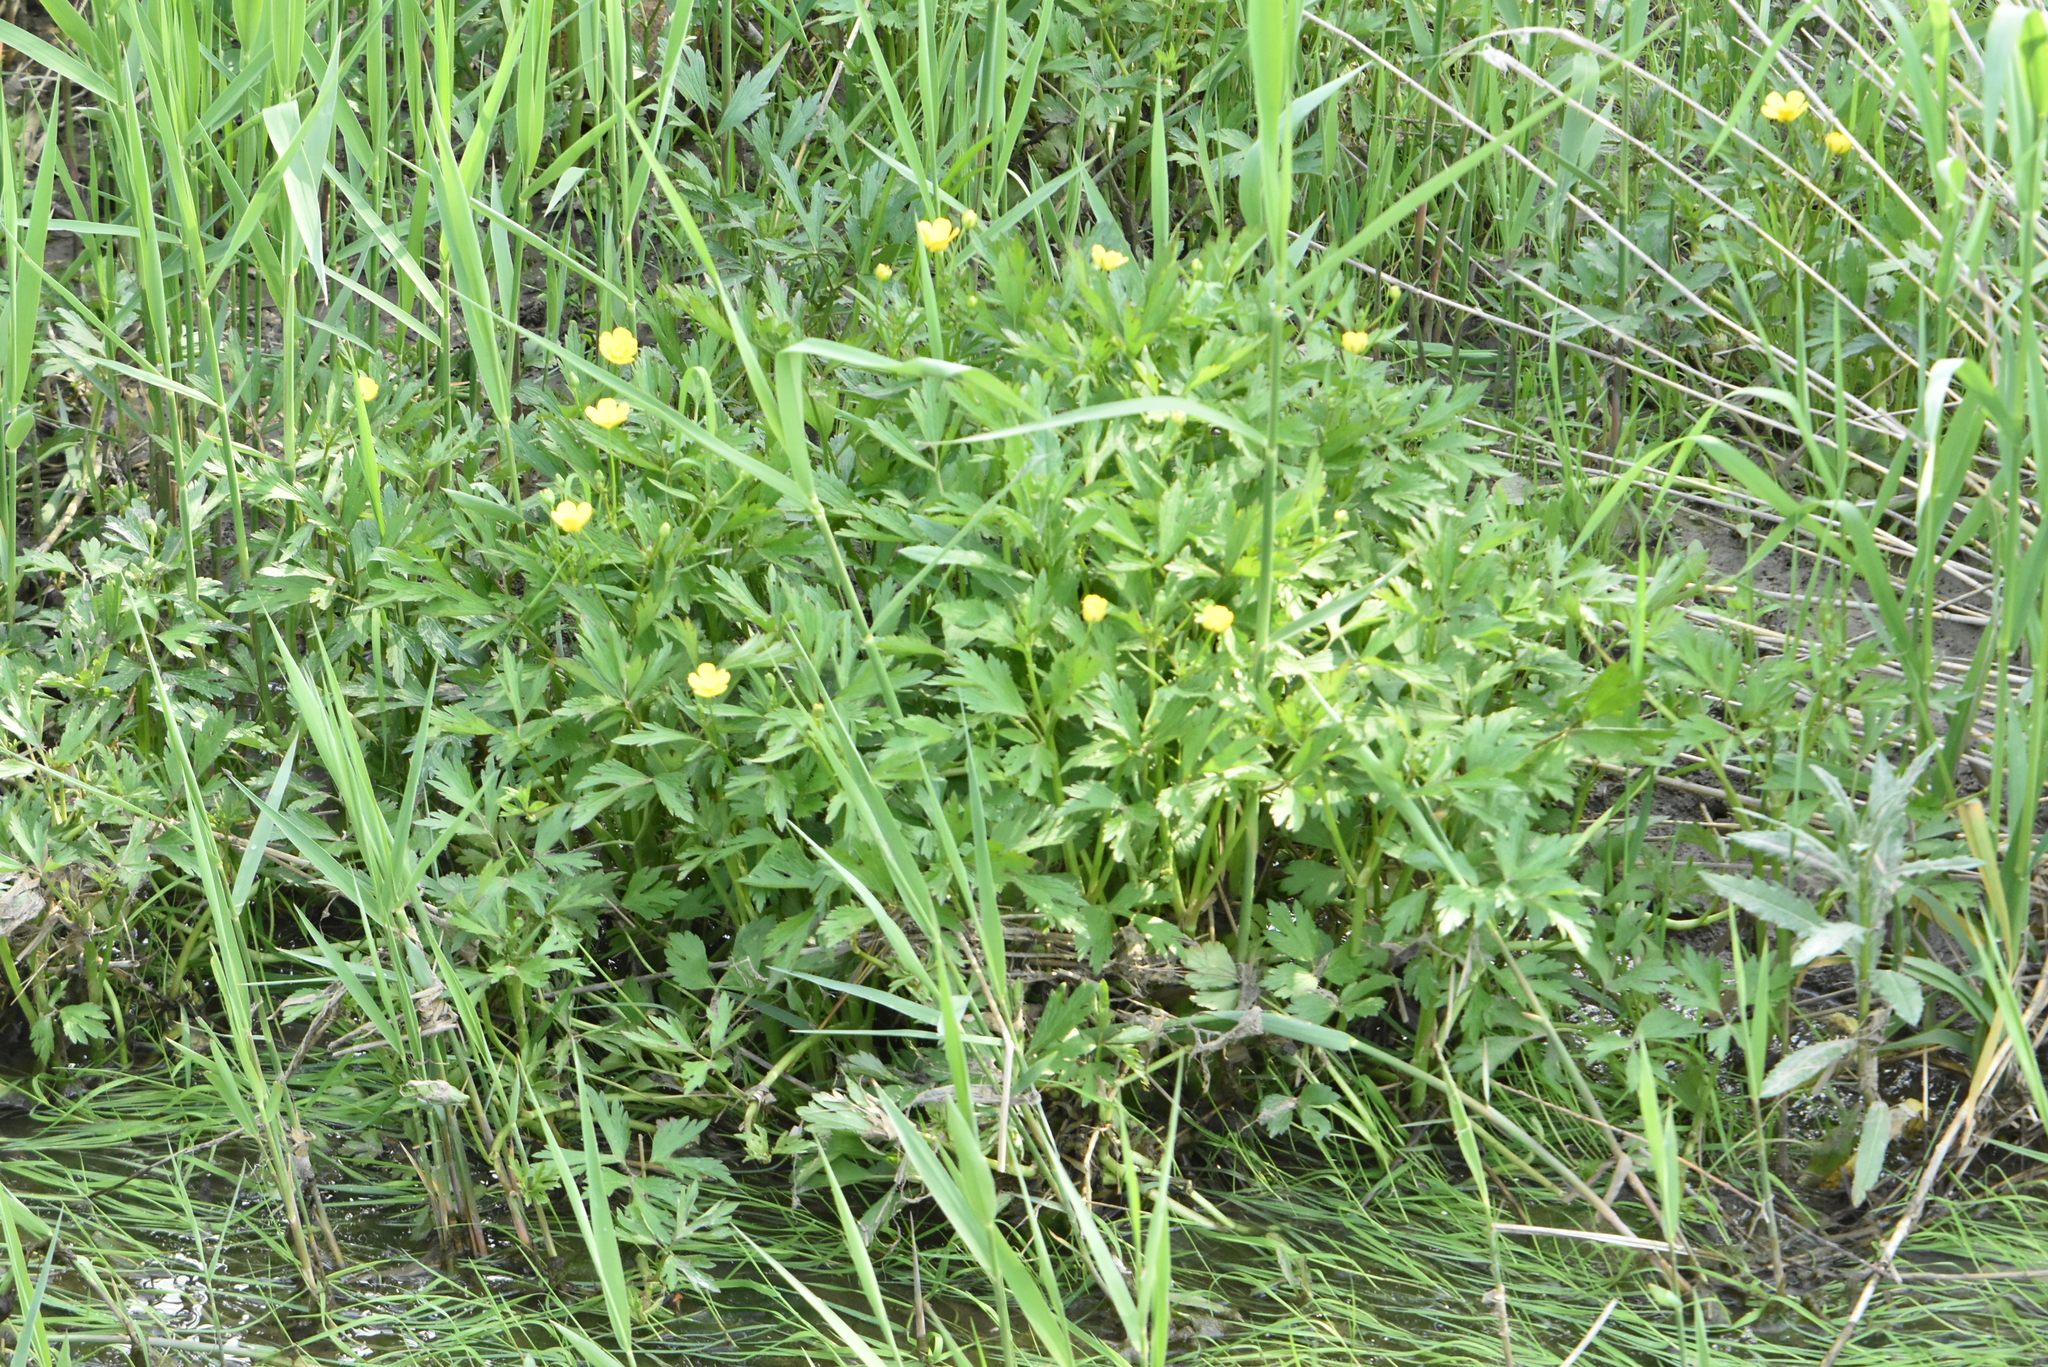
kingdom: Plantae
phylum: Tracheophyta
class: Magnoliopsida
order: Ranunculales
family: Ranunculaceae
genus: Ranunculus
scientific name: Ranunculus repens
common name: Creeping buttercup
